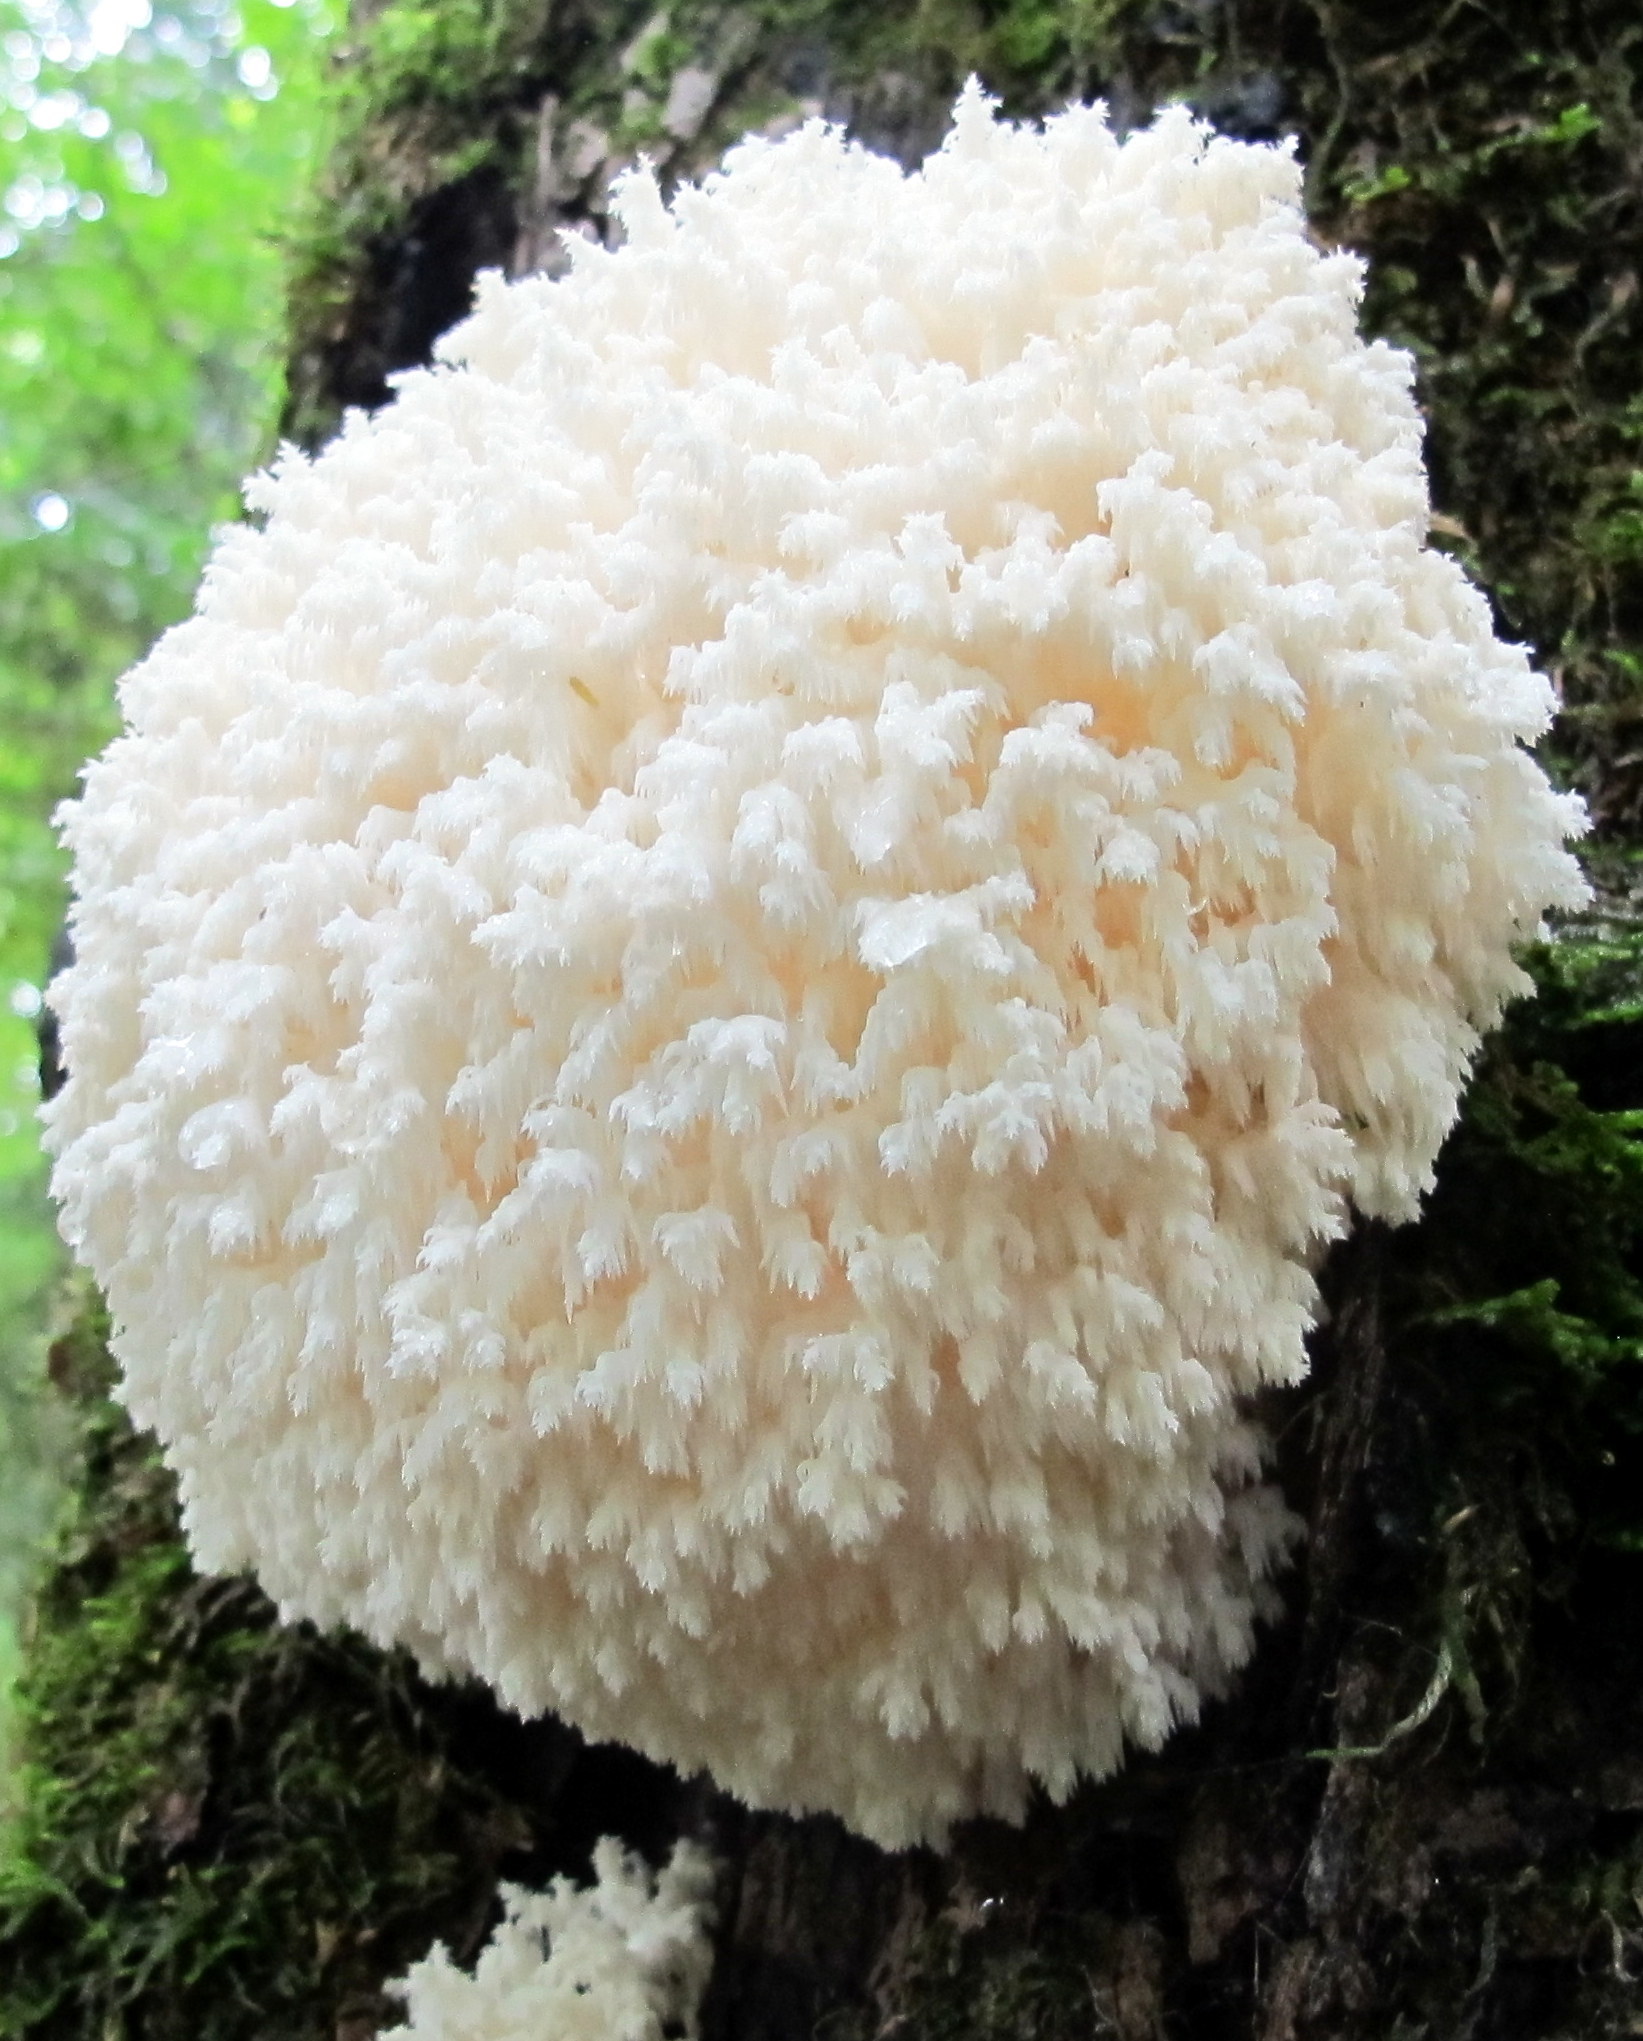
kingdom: Fungi
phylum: Basidiomycota
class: Agaricomycetes
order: Russulales
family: Hericiaceae
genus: Hericium
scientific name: Hericium coralloides
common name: Coral tooth
